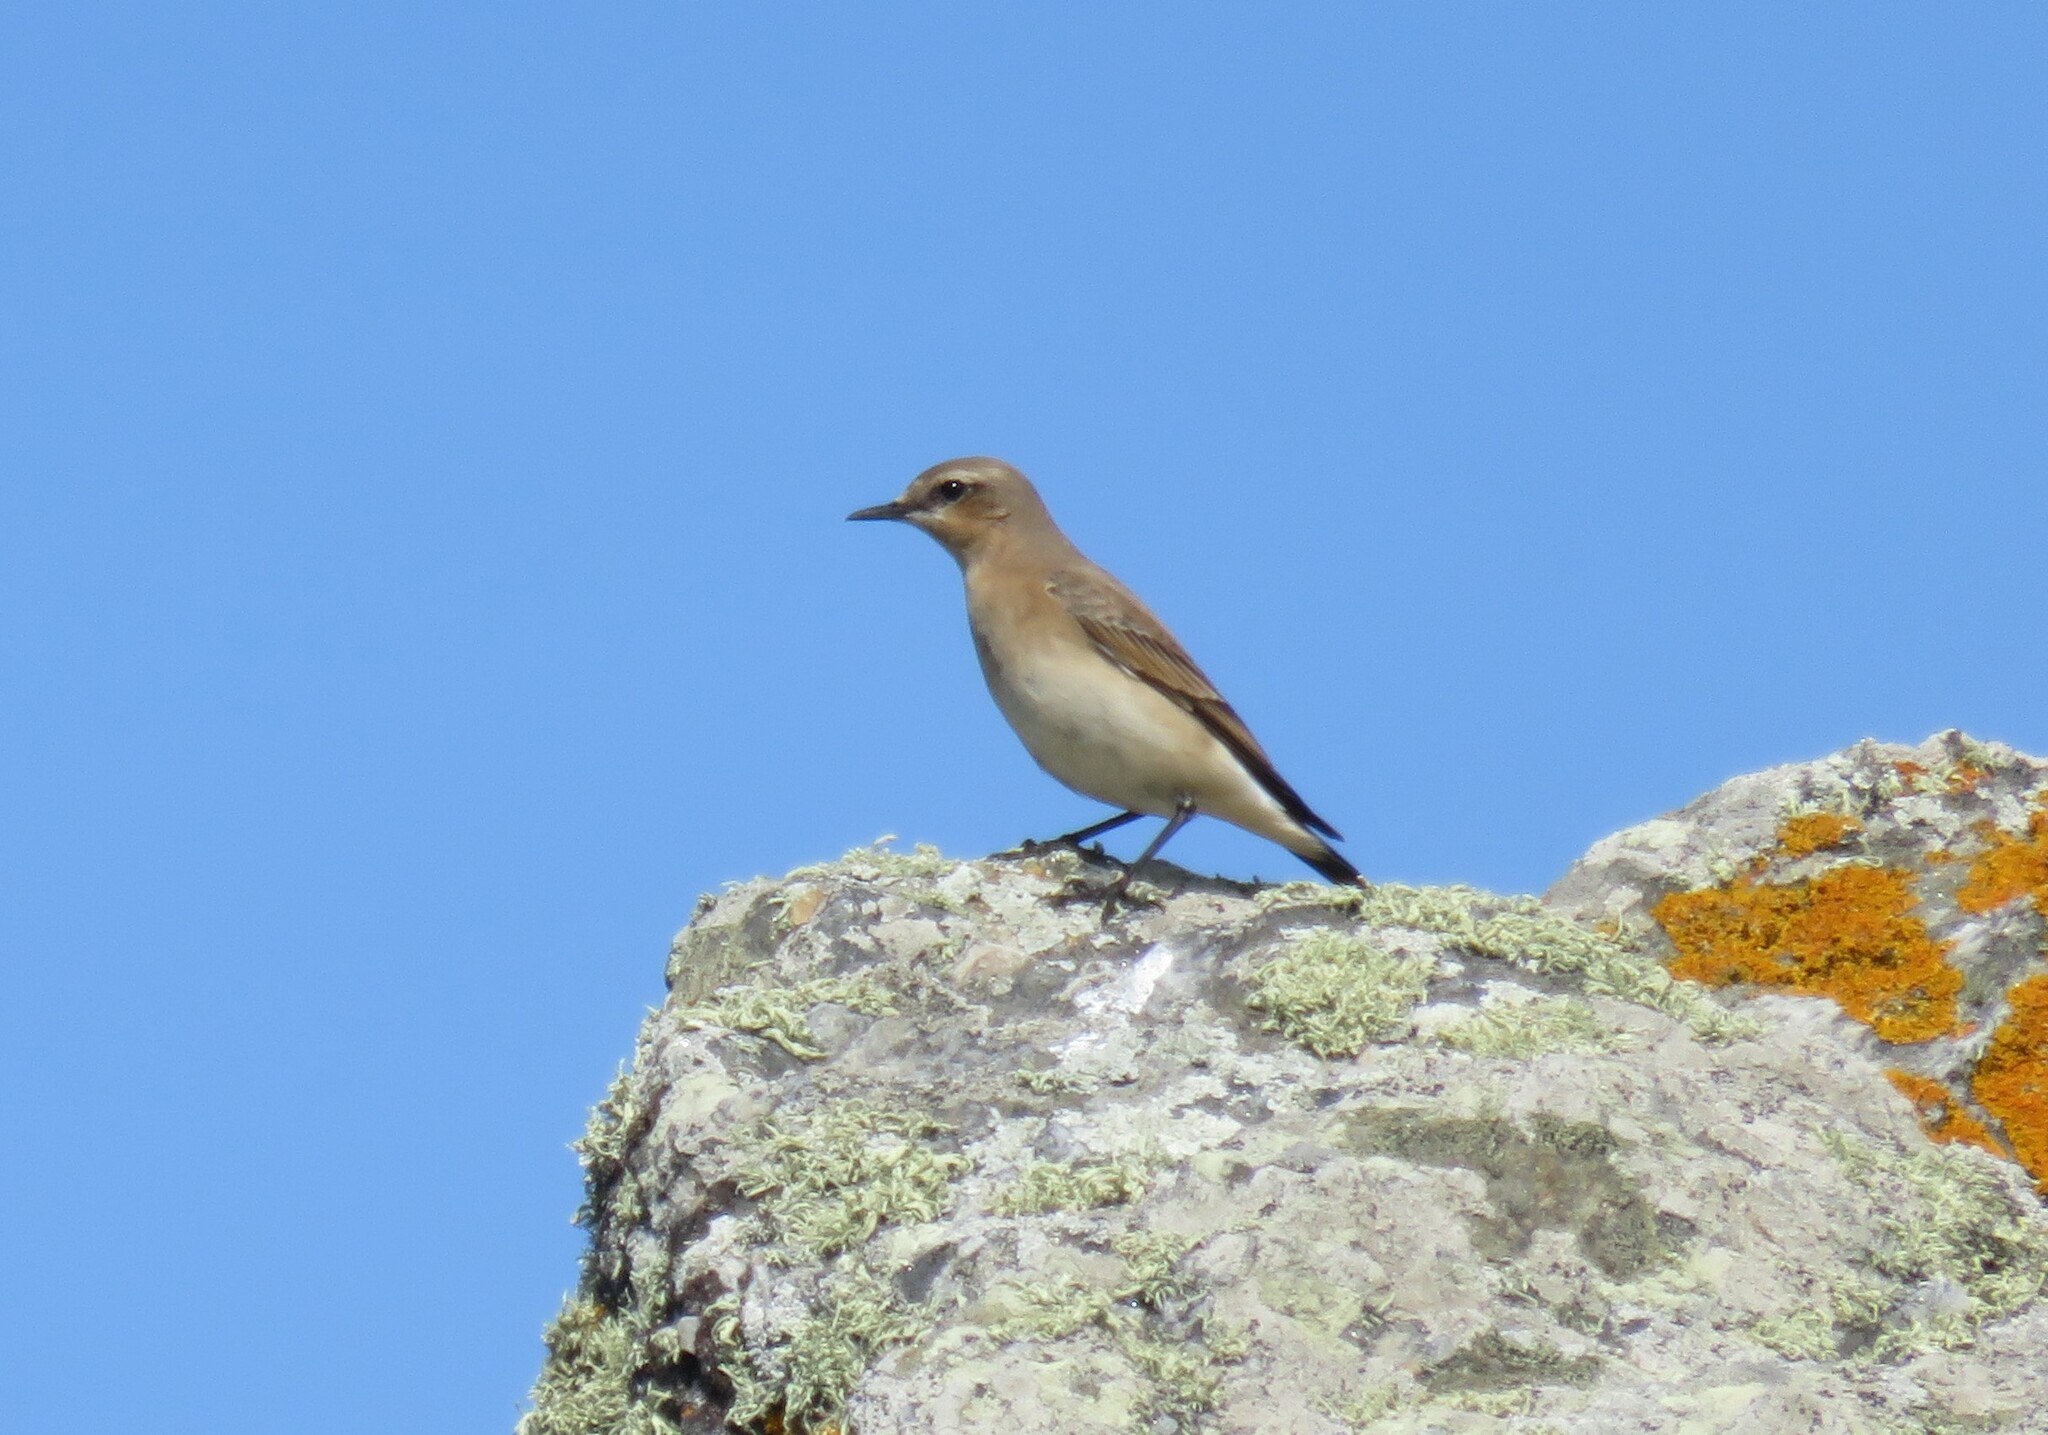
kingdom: Animalia
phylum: Chordata
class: Aves
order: Passeriformes
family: Muscicapidae
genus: Oenanthe
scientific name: Oenanthe oenanthe
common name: Northern wheatear
